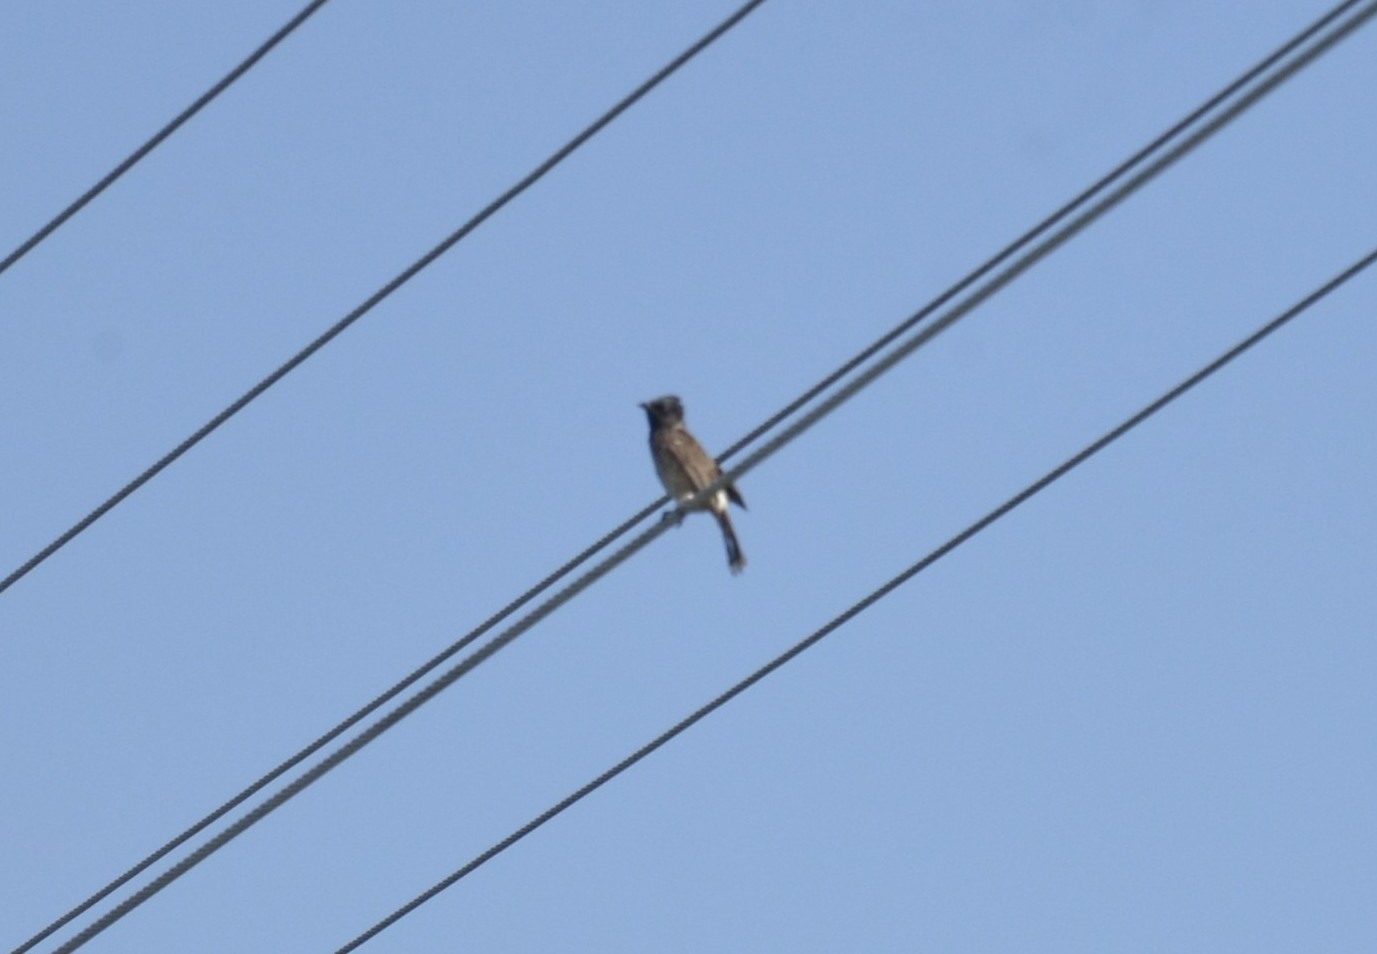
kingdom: Animalia
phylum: Chordata
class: Aves
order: Passeriformes
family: Pycnonotidae
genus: Pycnonotus
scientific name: Pycnonotus cafer
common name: Red-vented bulbul
